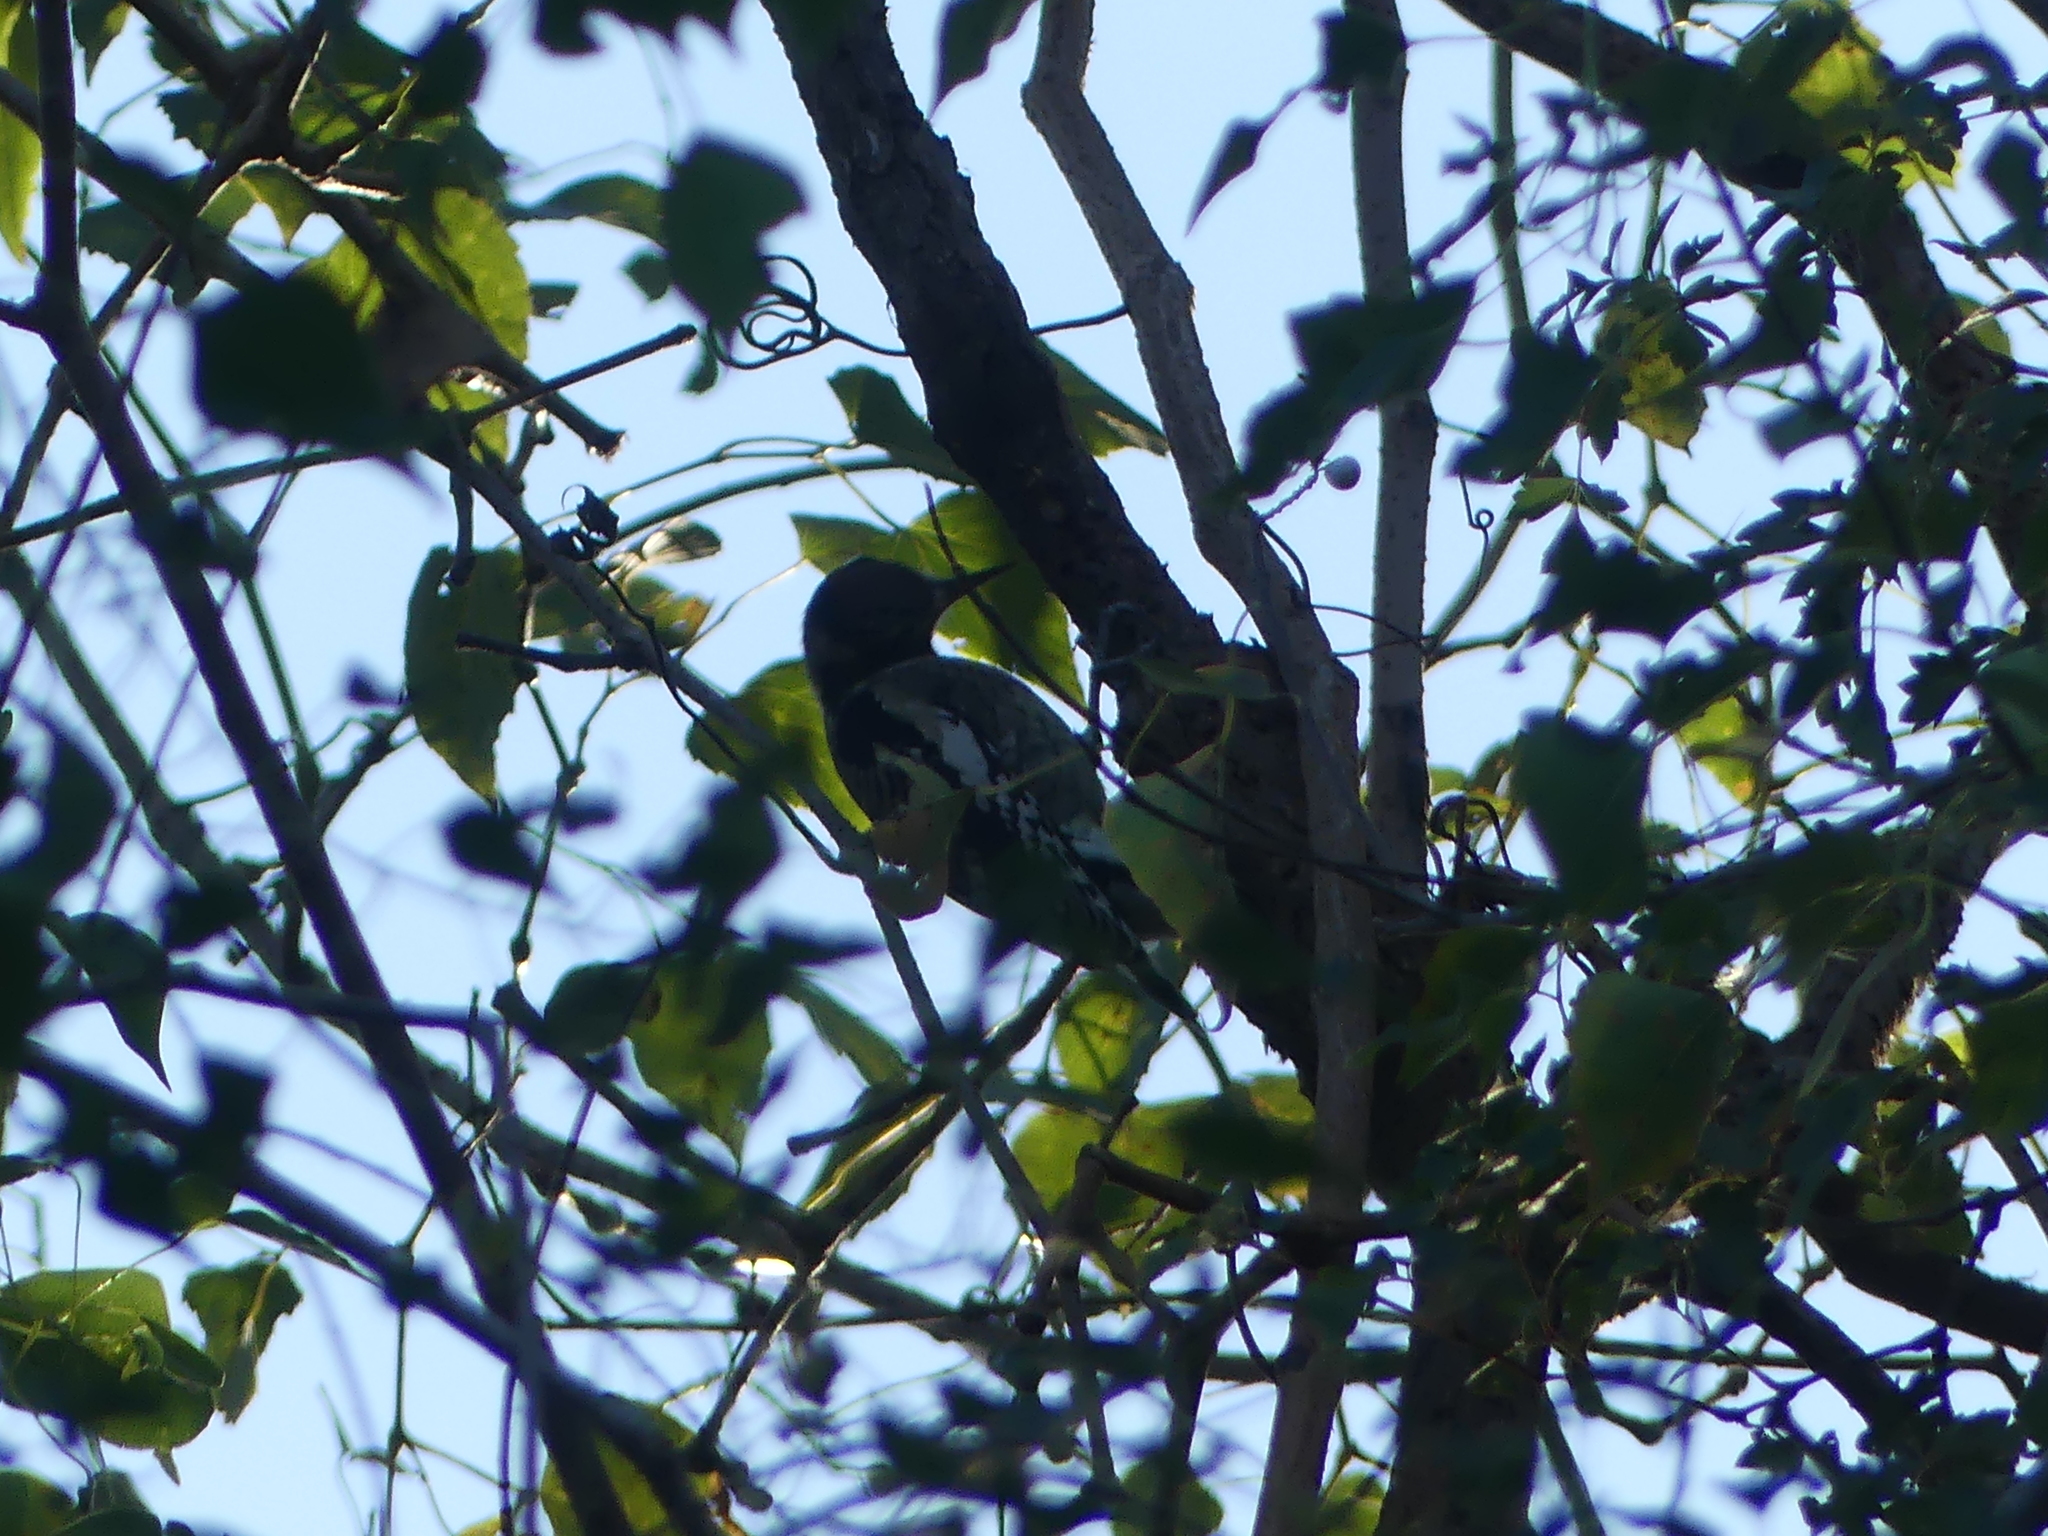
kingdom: Animalia
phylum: Chordata
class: Aves
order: Piciformes
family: Picidae
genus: Sphyrapicus
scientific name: Sphyrapicus varius
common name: Yellow-bellied sapsucker
